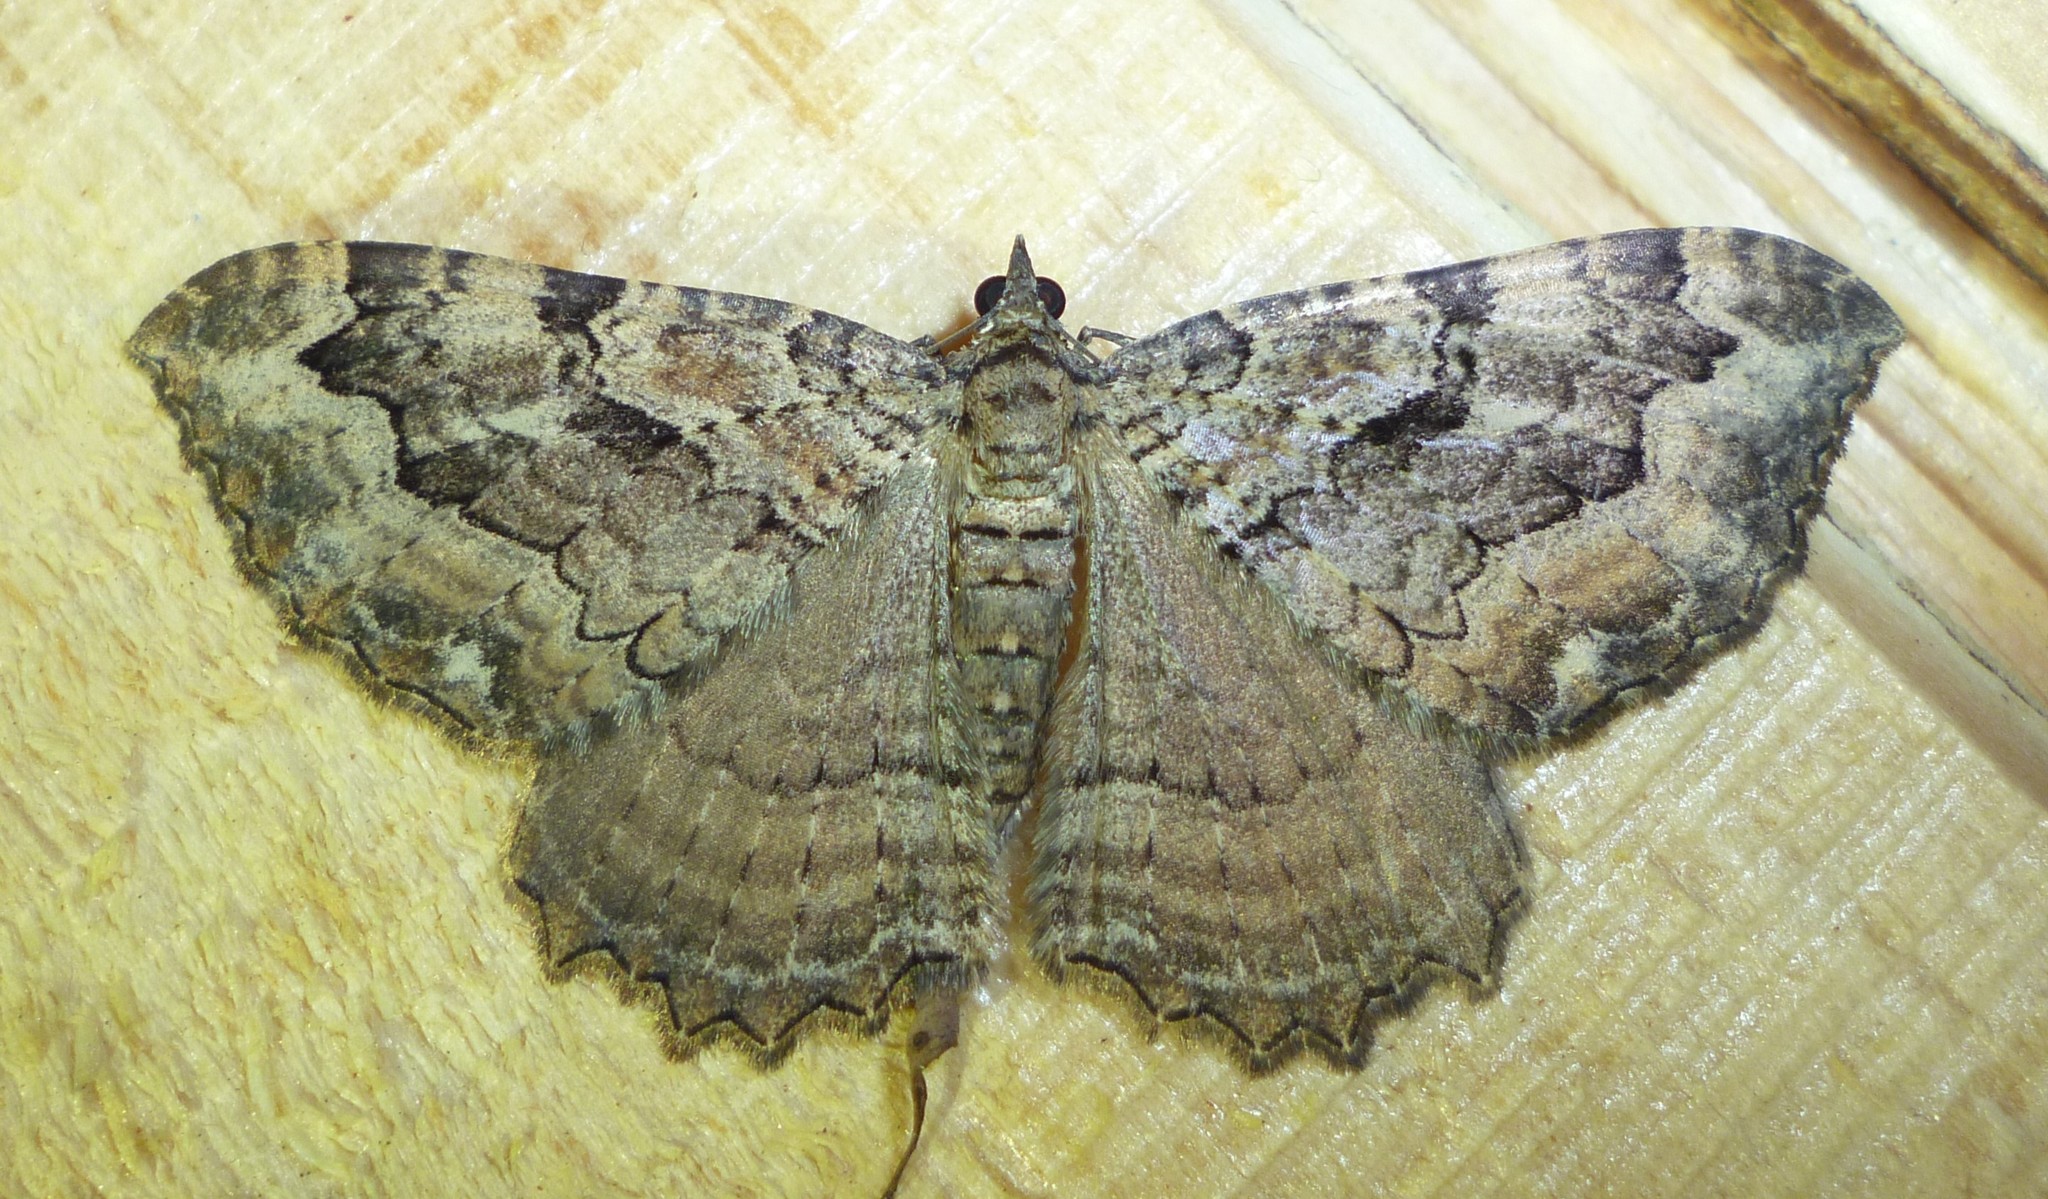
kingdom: Animalia
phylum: Arthropoda
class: Insecta
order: Lepidoptera
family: Geometridae
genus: Rheumaptera
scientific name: Rheumaptera
